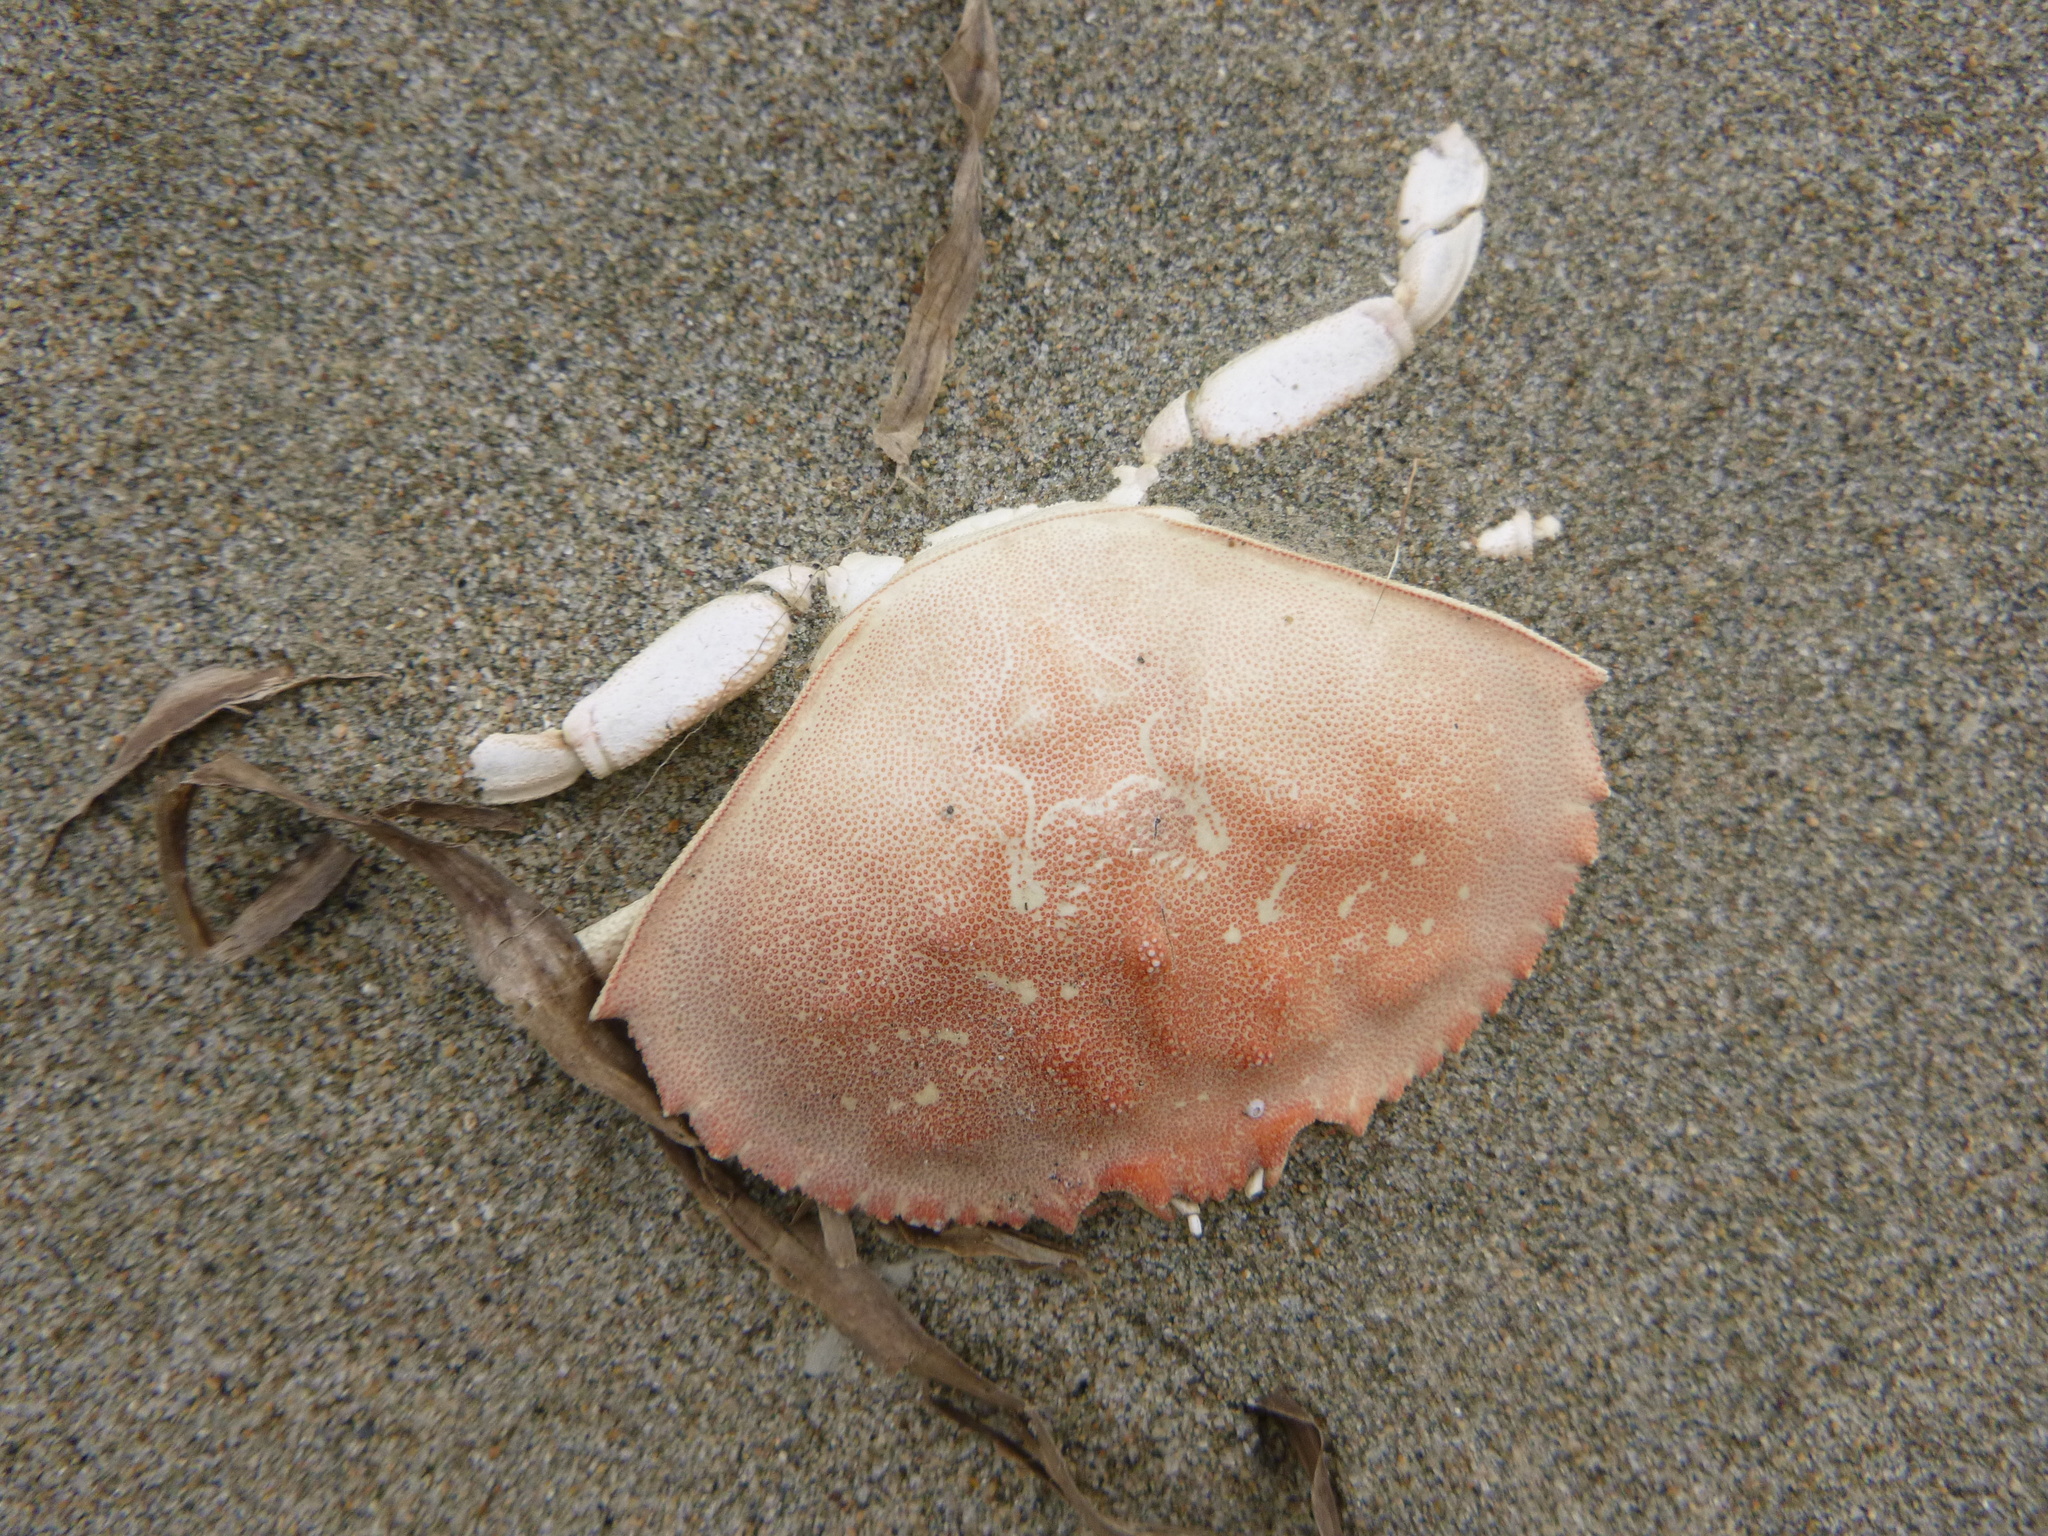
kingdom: Animalia
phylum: Arthropoda
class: Malacostraca
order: Decapoda
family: Cancridae
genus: Metacarcinus
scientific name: Metacarcinus magister
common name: Californian crab
